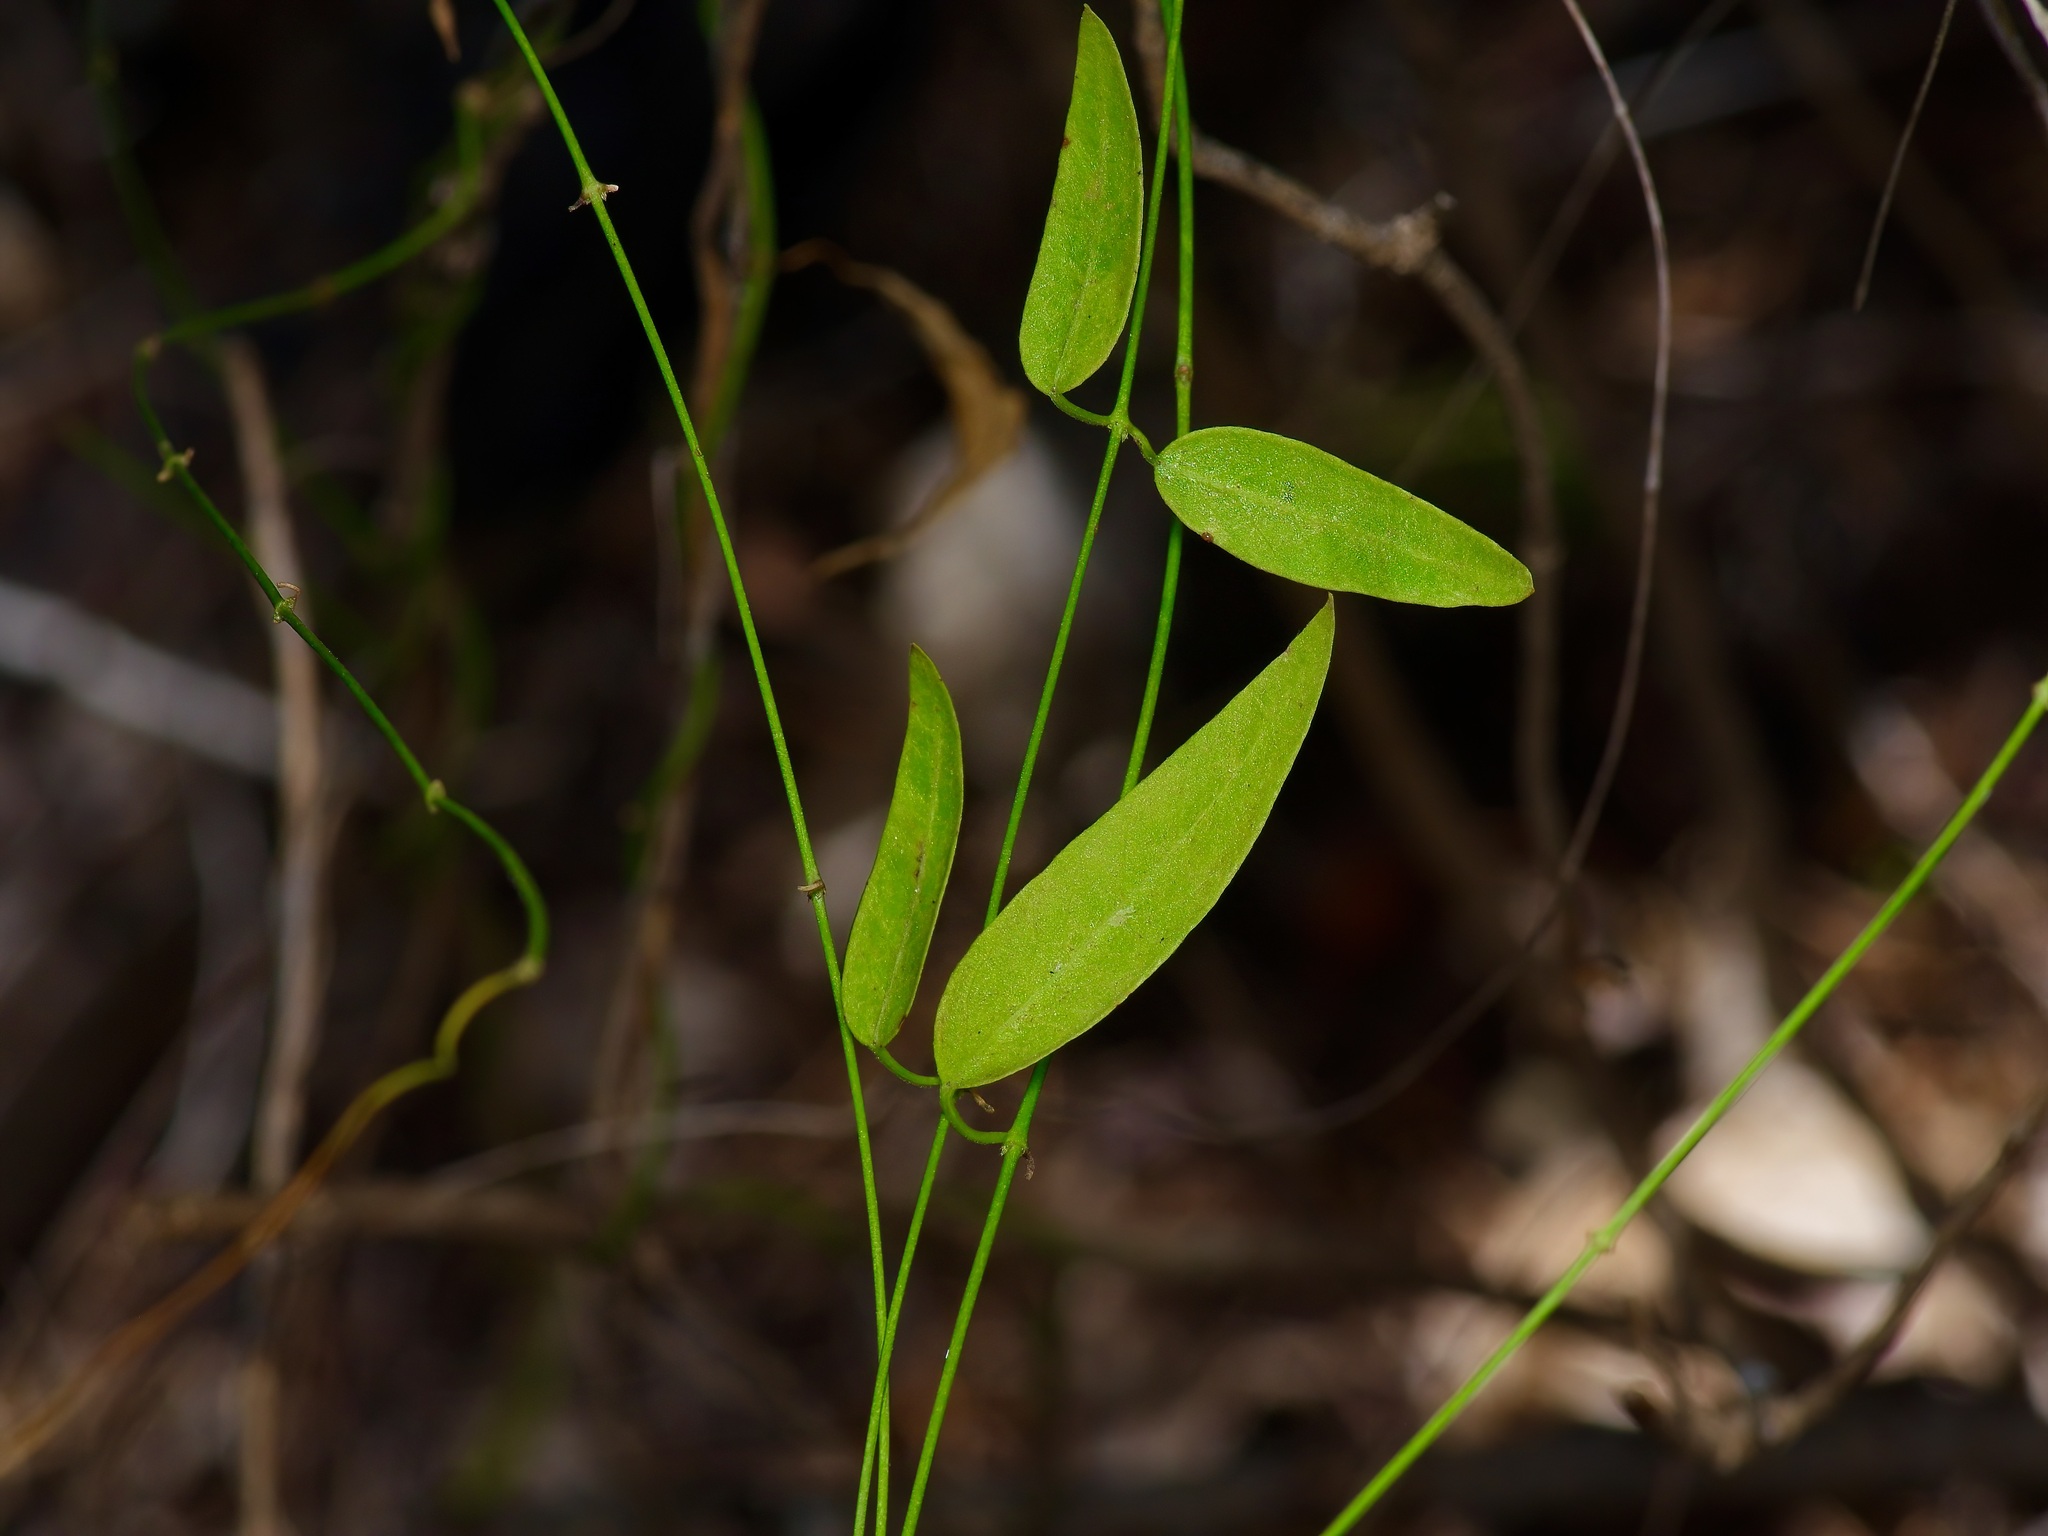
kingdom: Plantae
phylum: Tracheophyta
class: Magnoliopsida
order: Gentianales
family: Apocynaceae
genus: Metastelma
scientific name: Metastelma barbigerum
